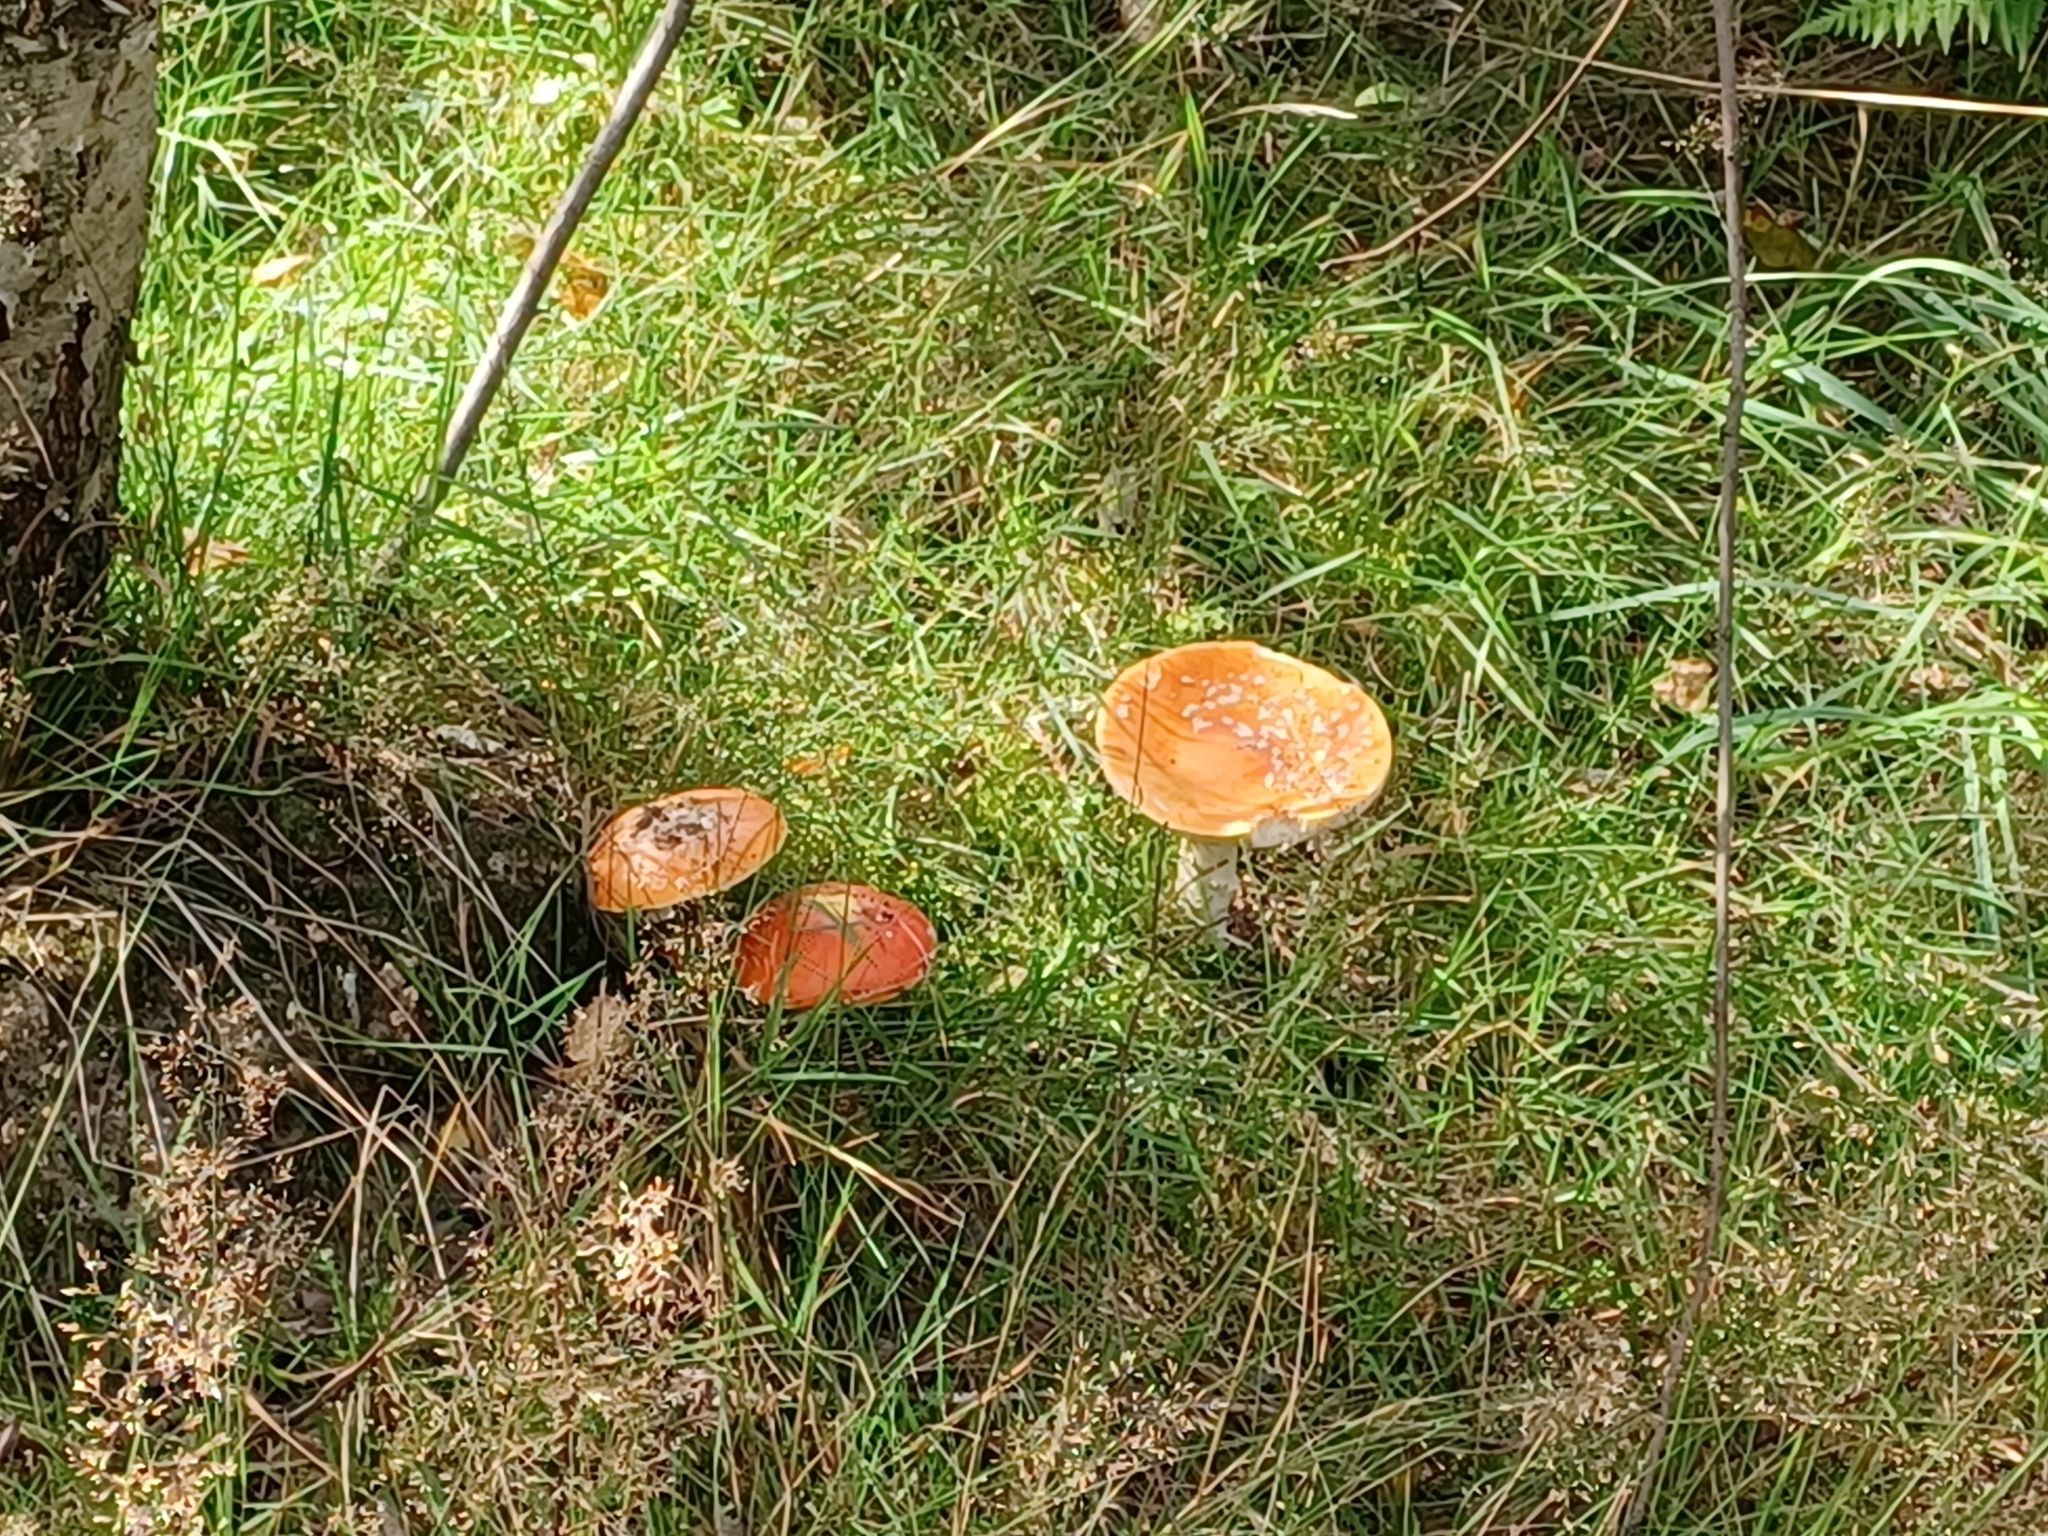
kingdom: Fungi
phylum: Basidiomycota
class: Agaricomycetes
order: Agaricales
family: Amanitaceae
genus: Amanita
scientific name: Amanita muscaria
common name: Fly agaric
